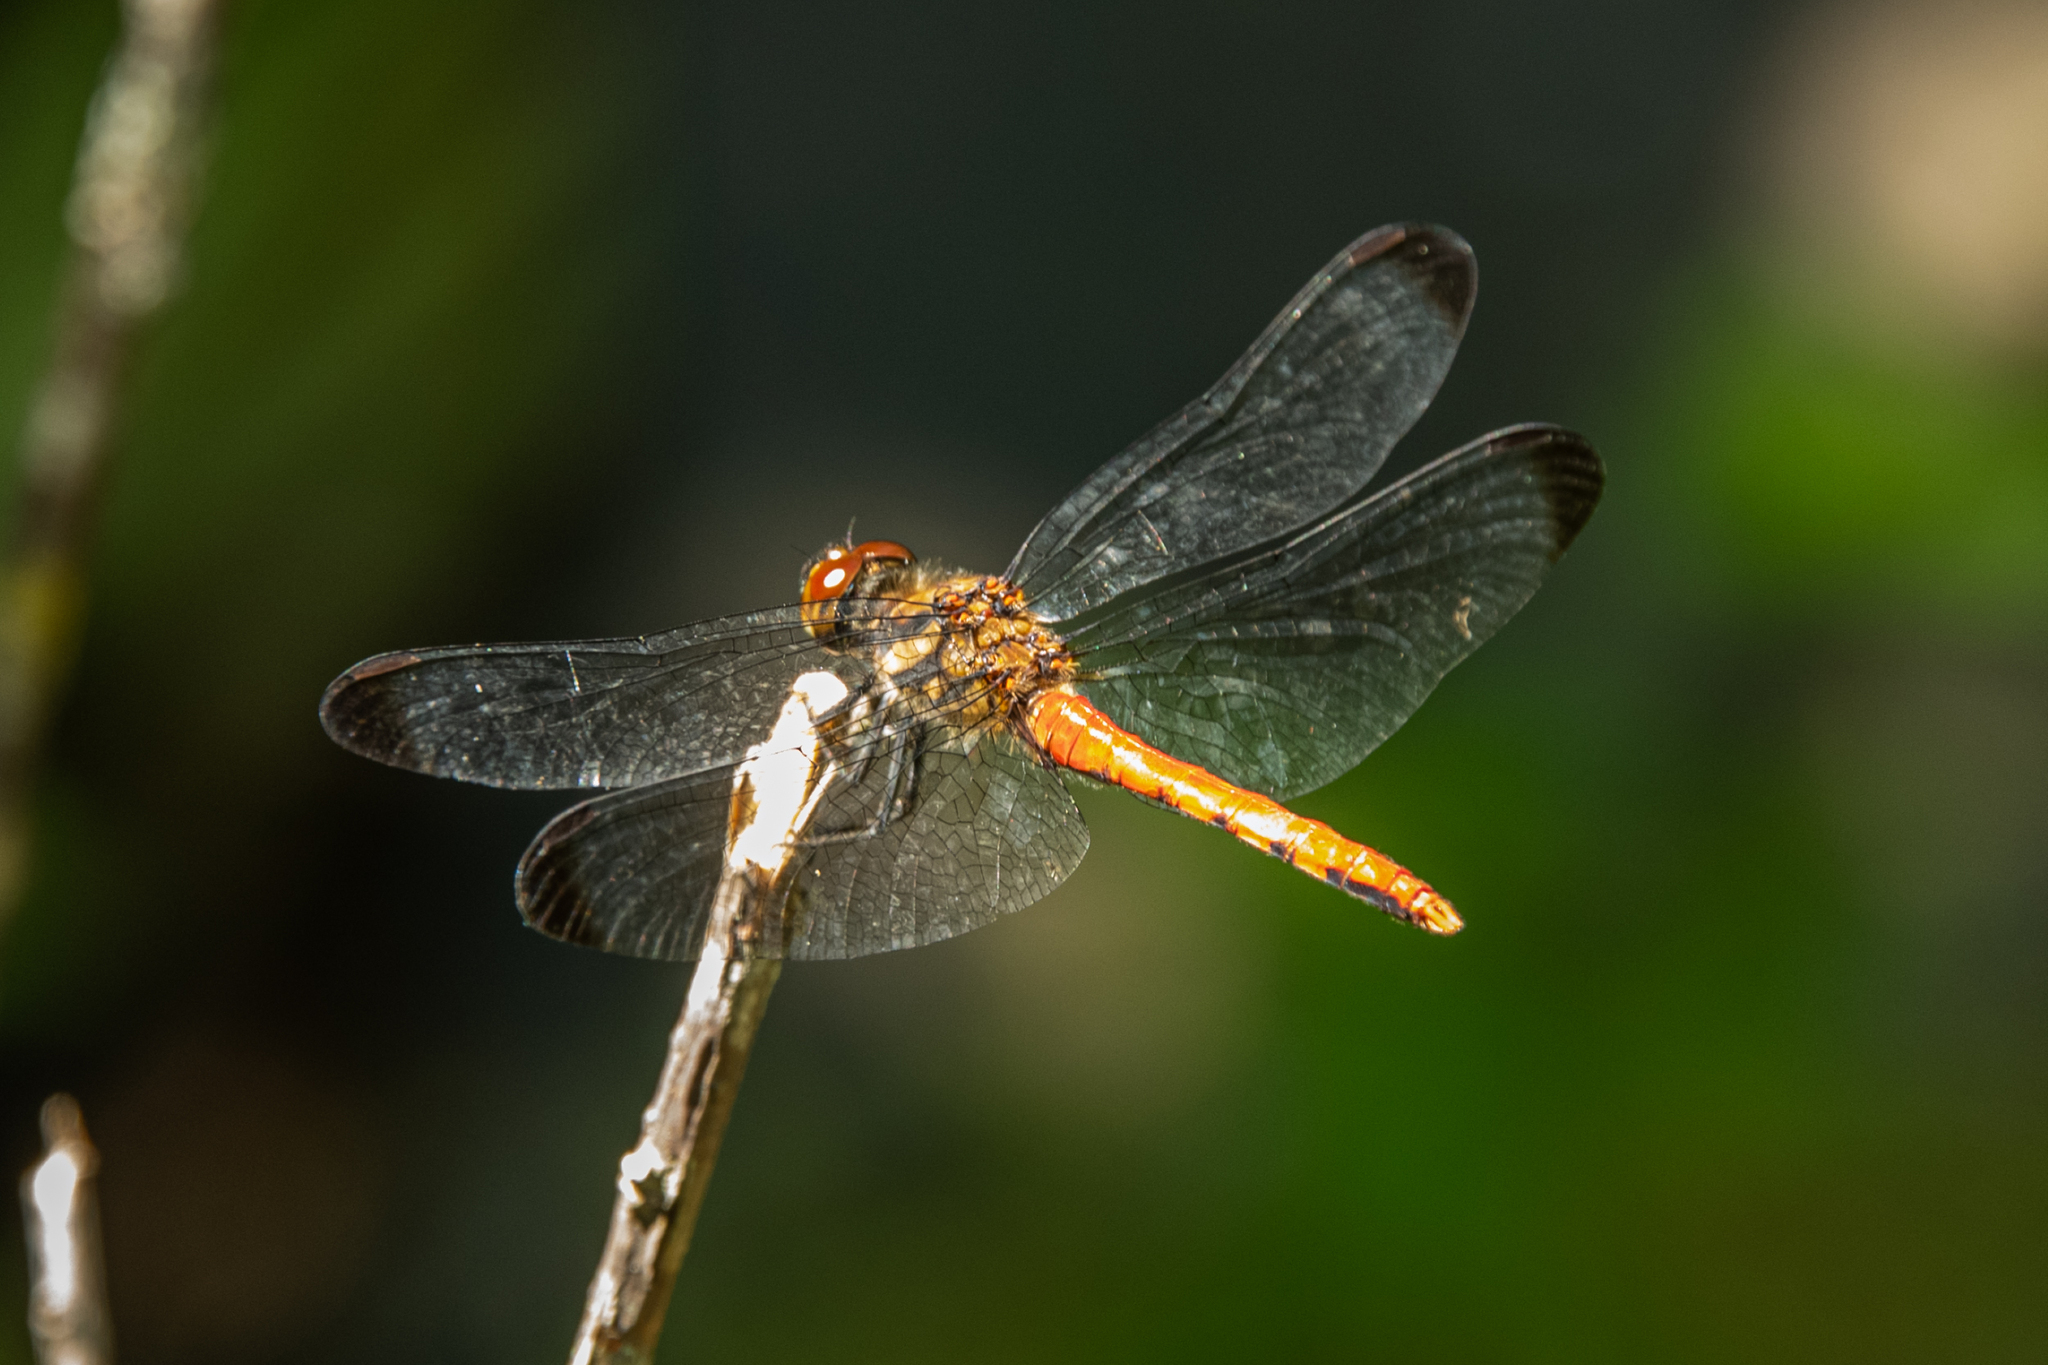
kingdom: Animalia
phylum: Arthropoda
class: Insecta
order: Odonata
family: Libellulidae
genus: Sympetrum
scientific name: Sympetrum risi
